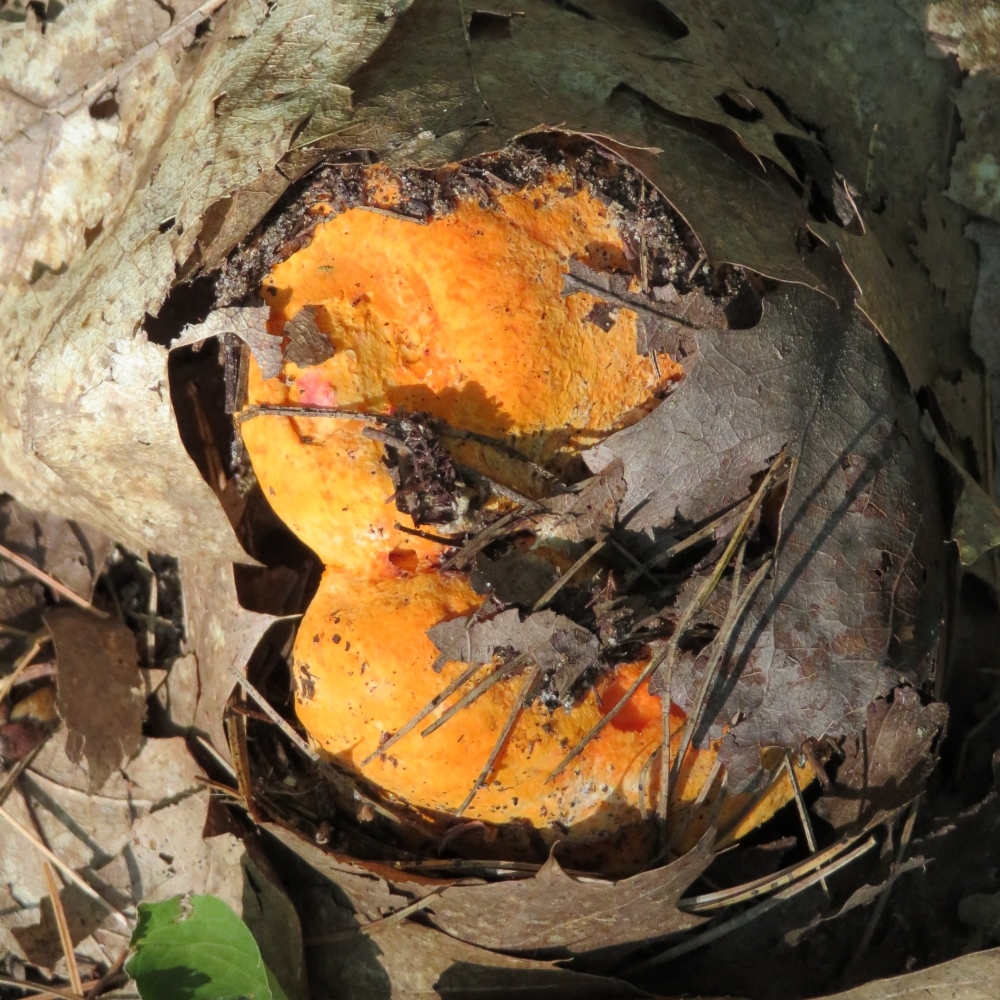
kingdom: Fungi
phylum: Ascomycota
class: Sordariomycetes
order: Hypocreales
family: Hypocreaceae
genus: Hypomyces
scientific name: Hypomyces lactifluorum
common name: Lobster mushroom
